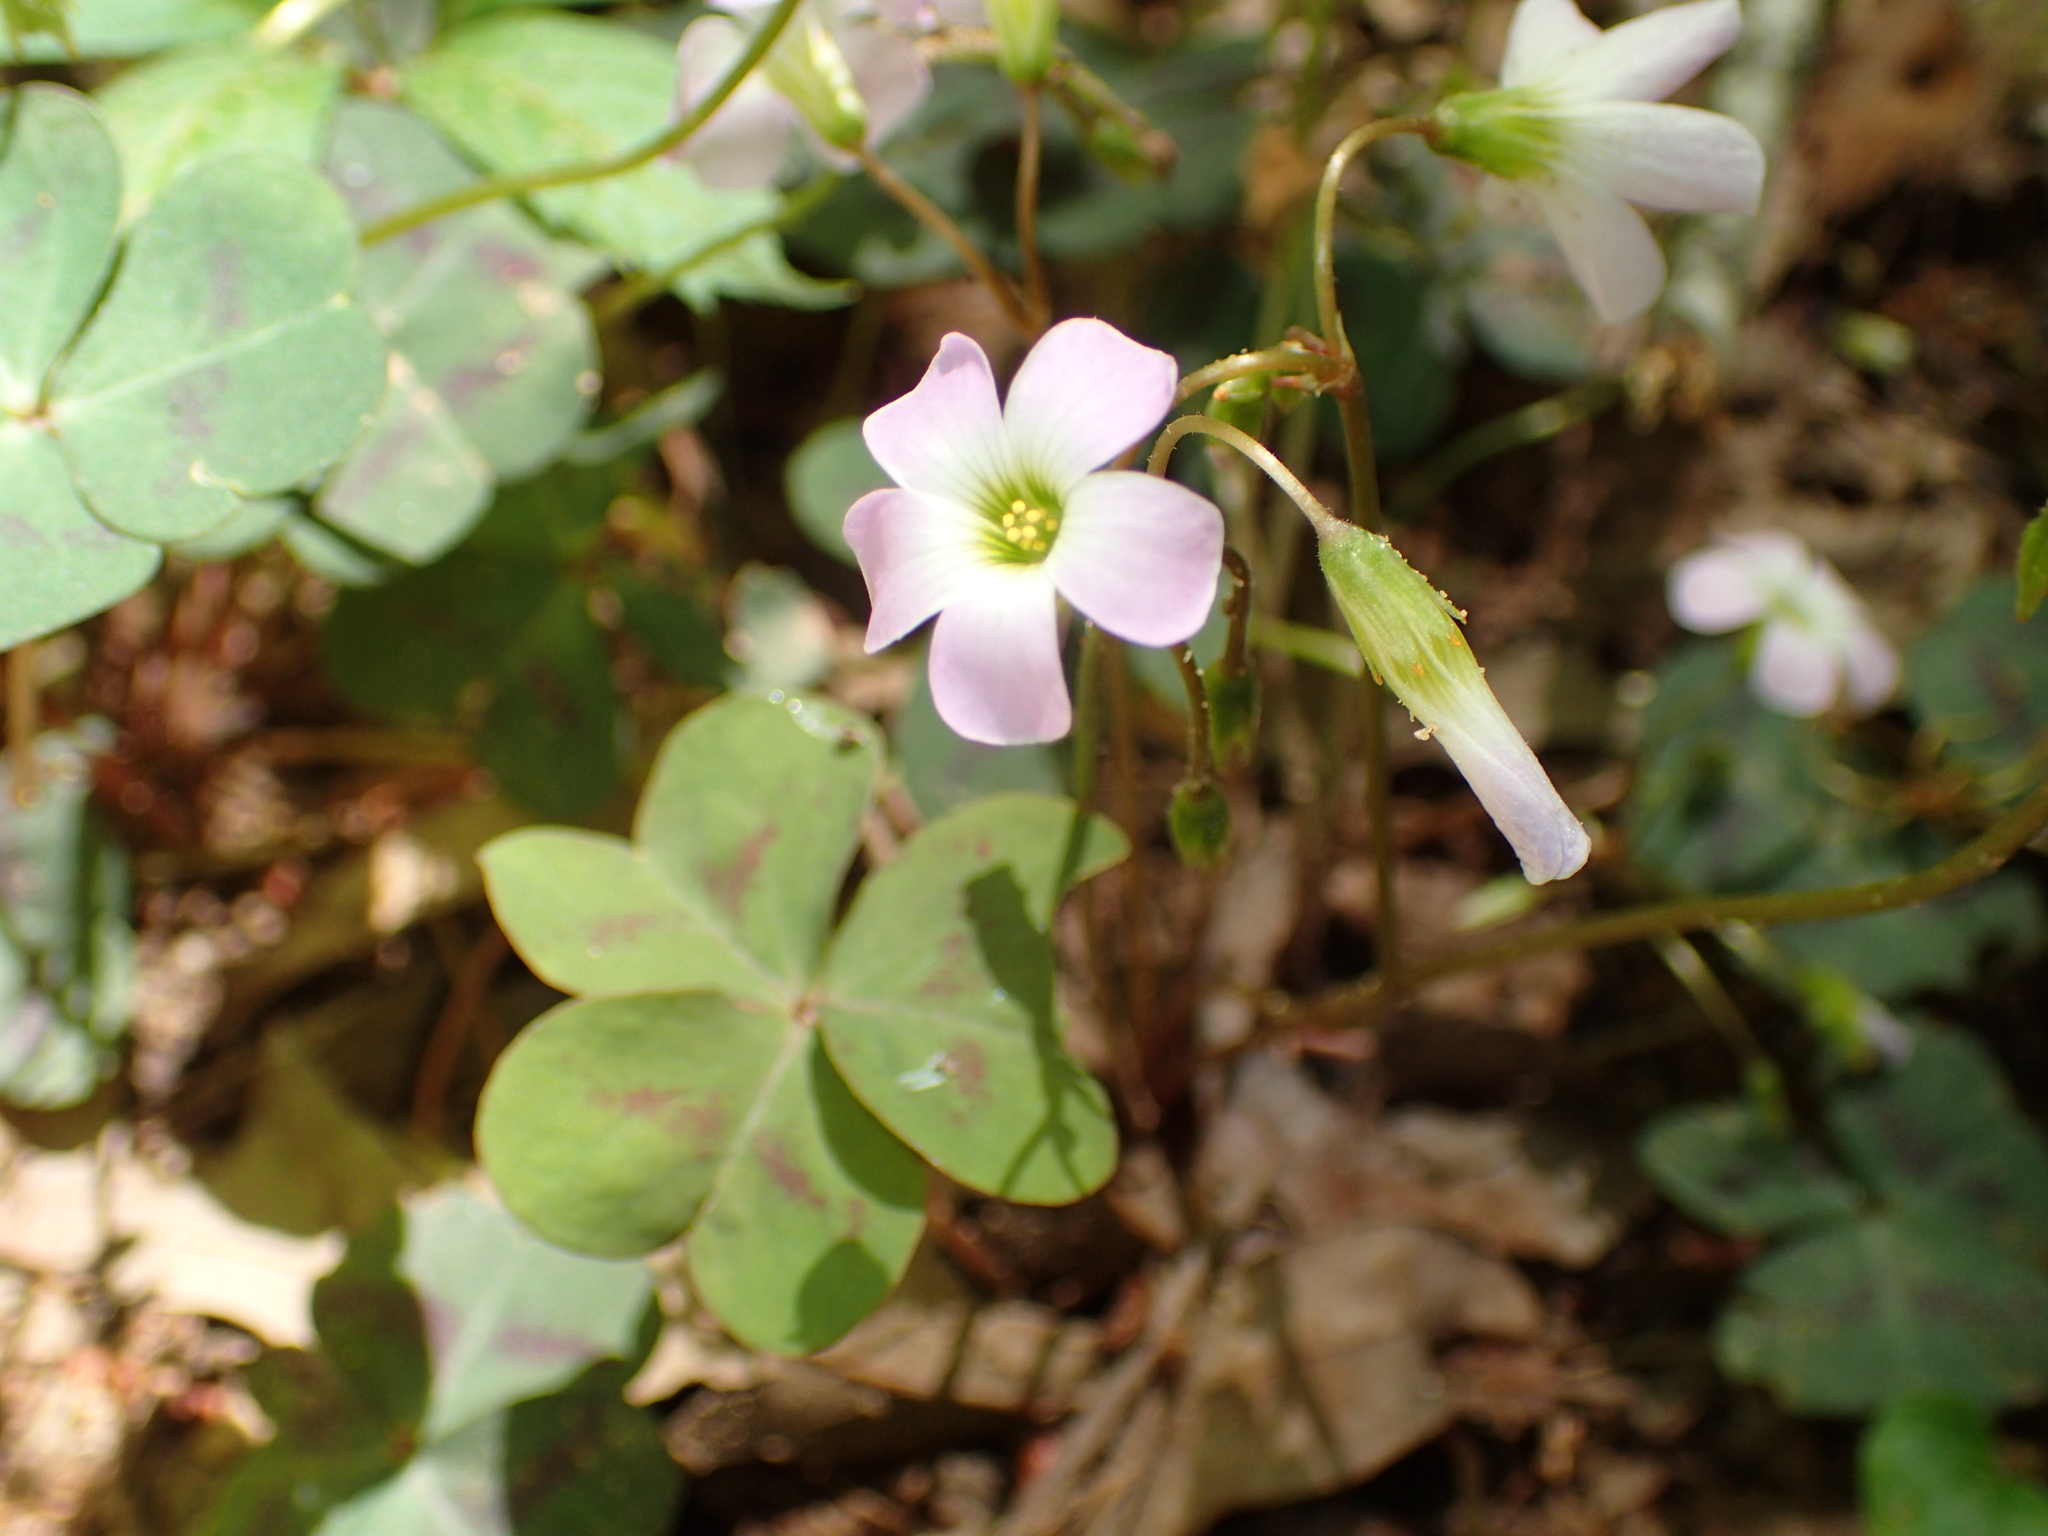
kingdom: Plantae
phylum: Tracheophyta
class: Magnoliopsida
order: Oxalidales
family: Oxalidaceae
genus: Oxalis
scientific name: Oxalis violacea
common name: Violet wood-sorrel
